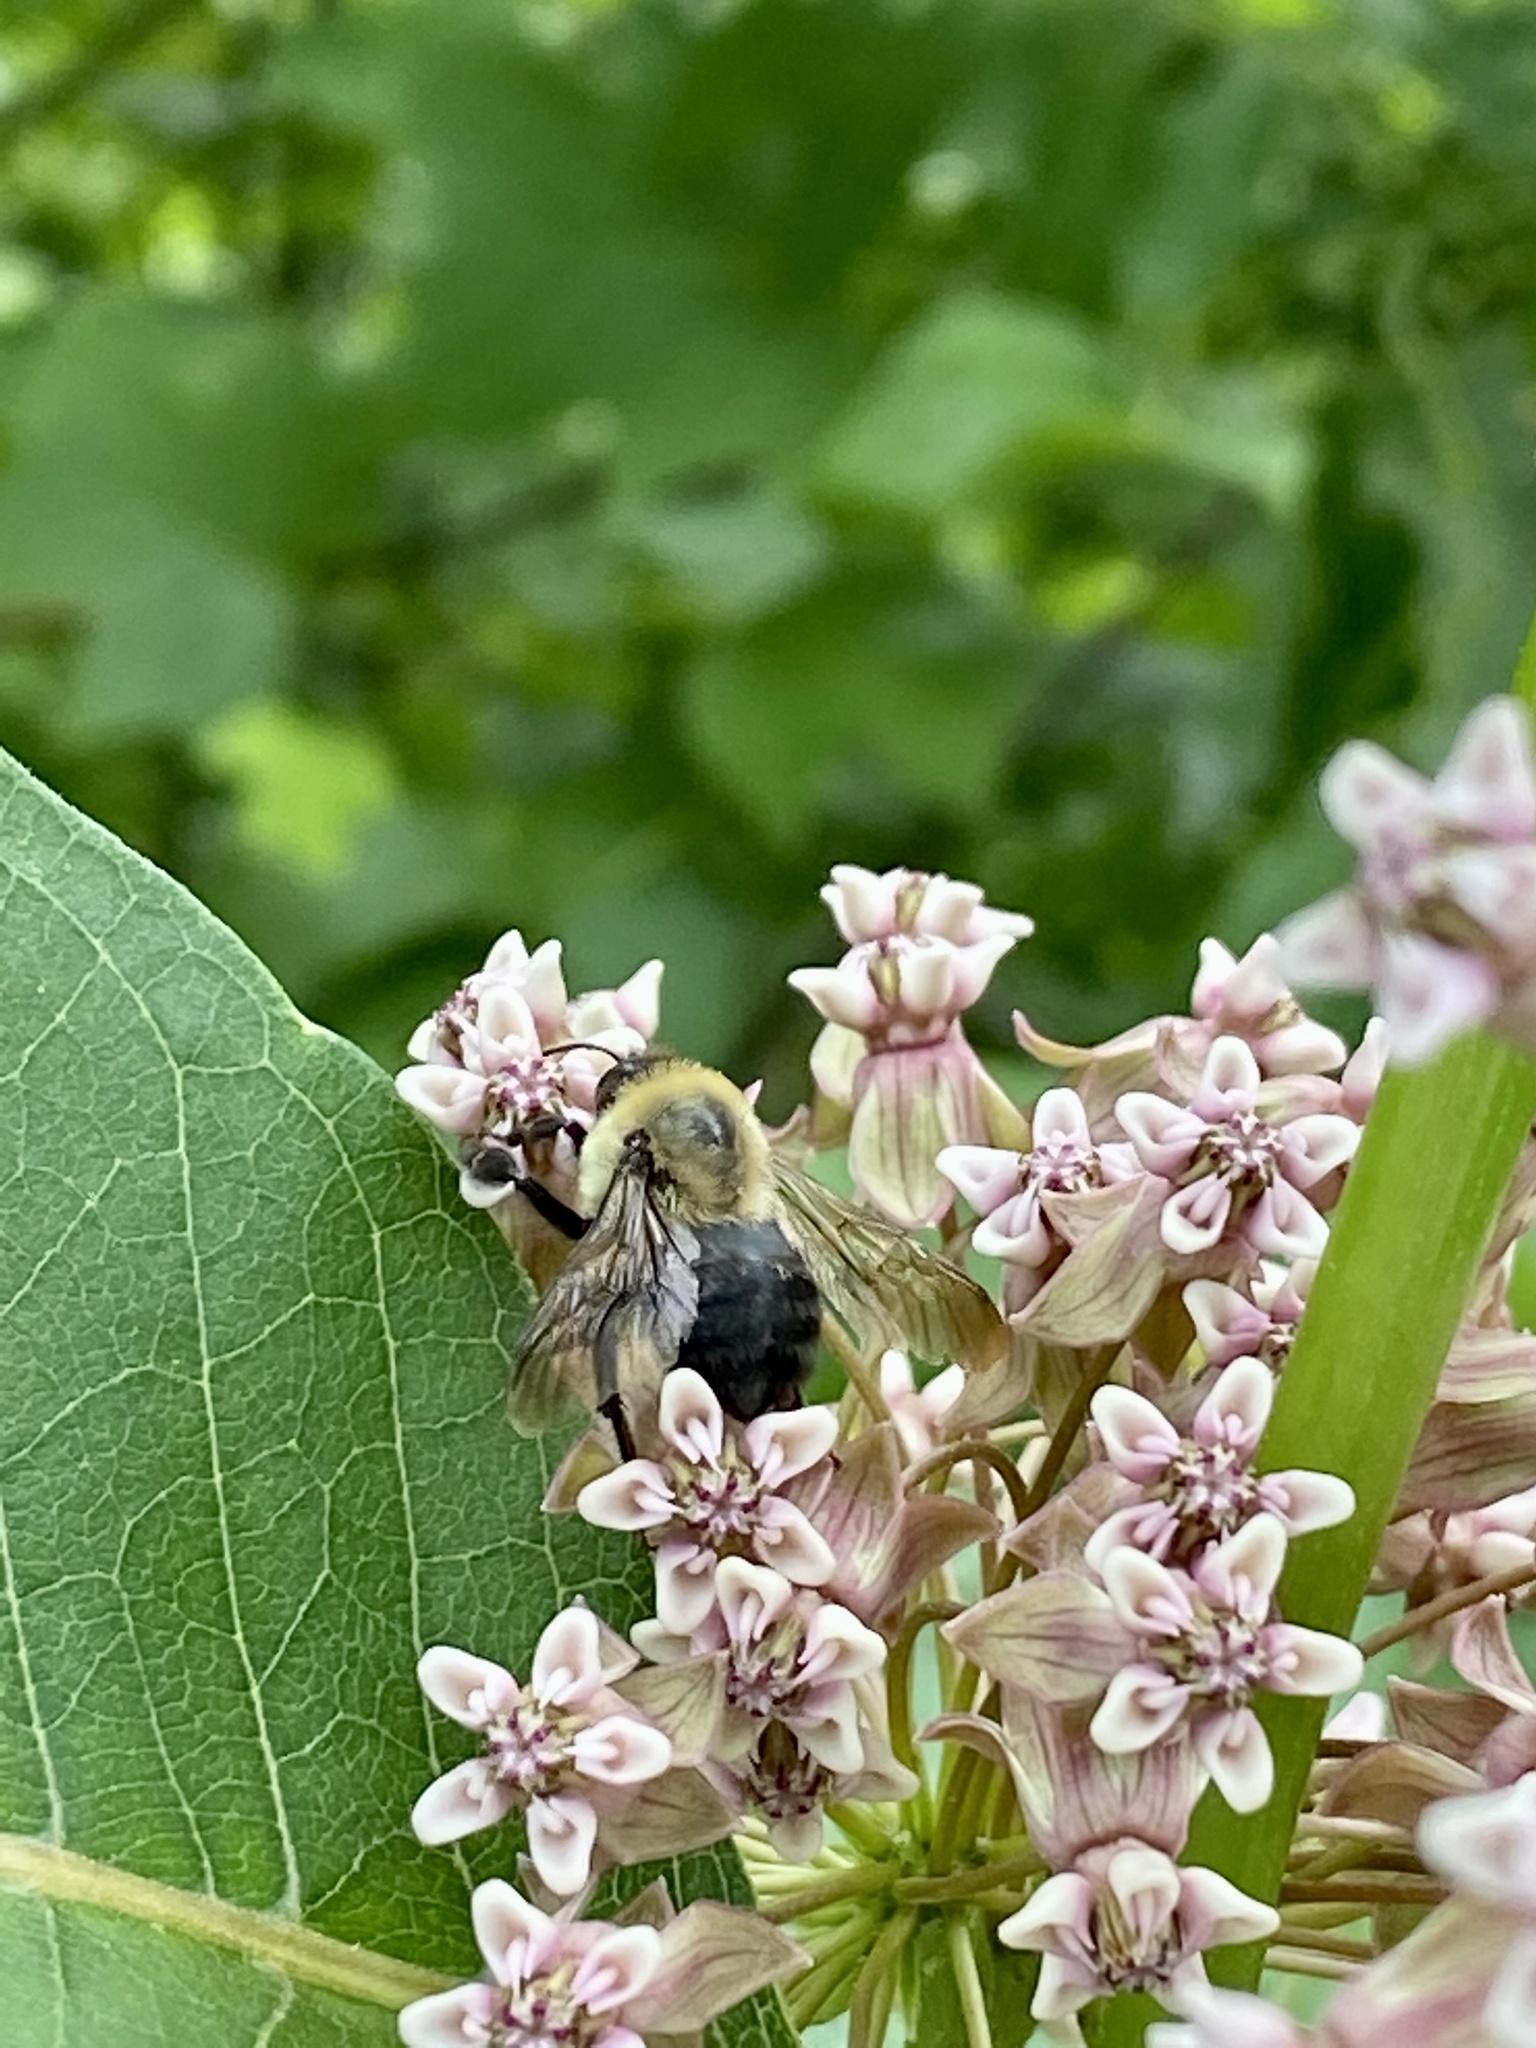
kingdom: Animalia
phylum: Arthropoda
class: Insecta
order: Hymenoptera
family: Apidae
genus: Bombus
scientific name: Bombus griseocollis
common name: Brown-belted bumble bee
